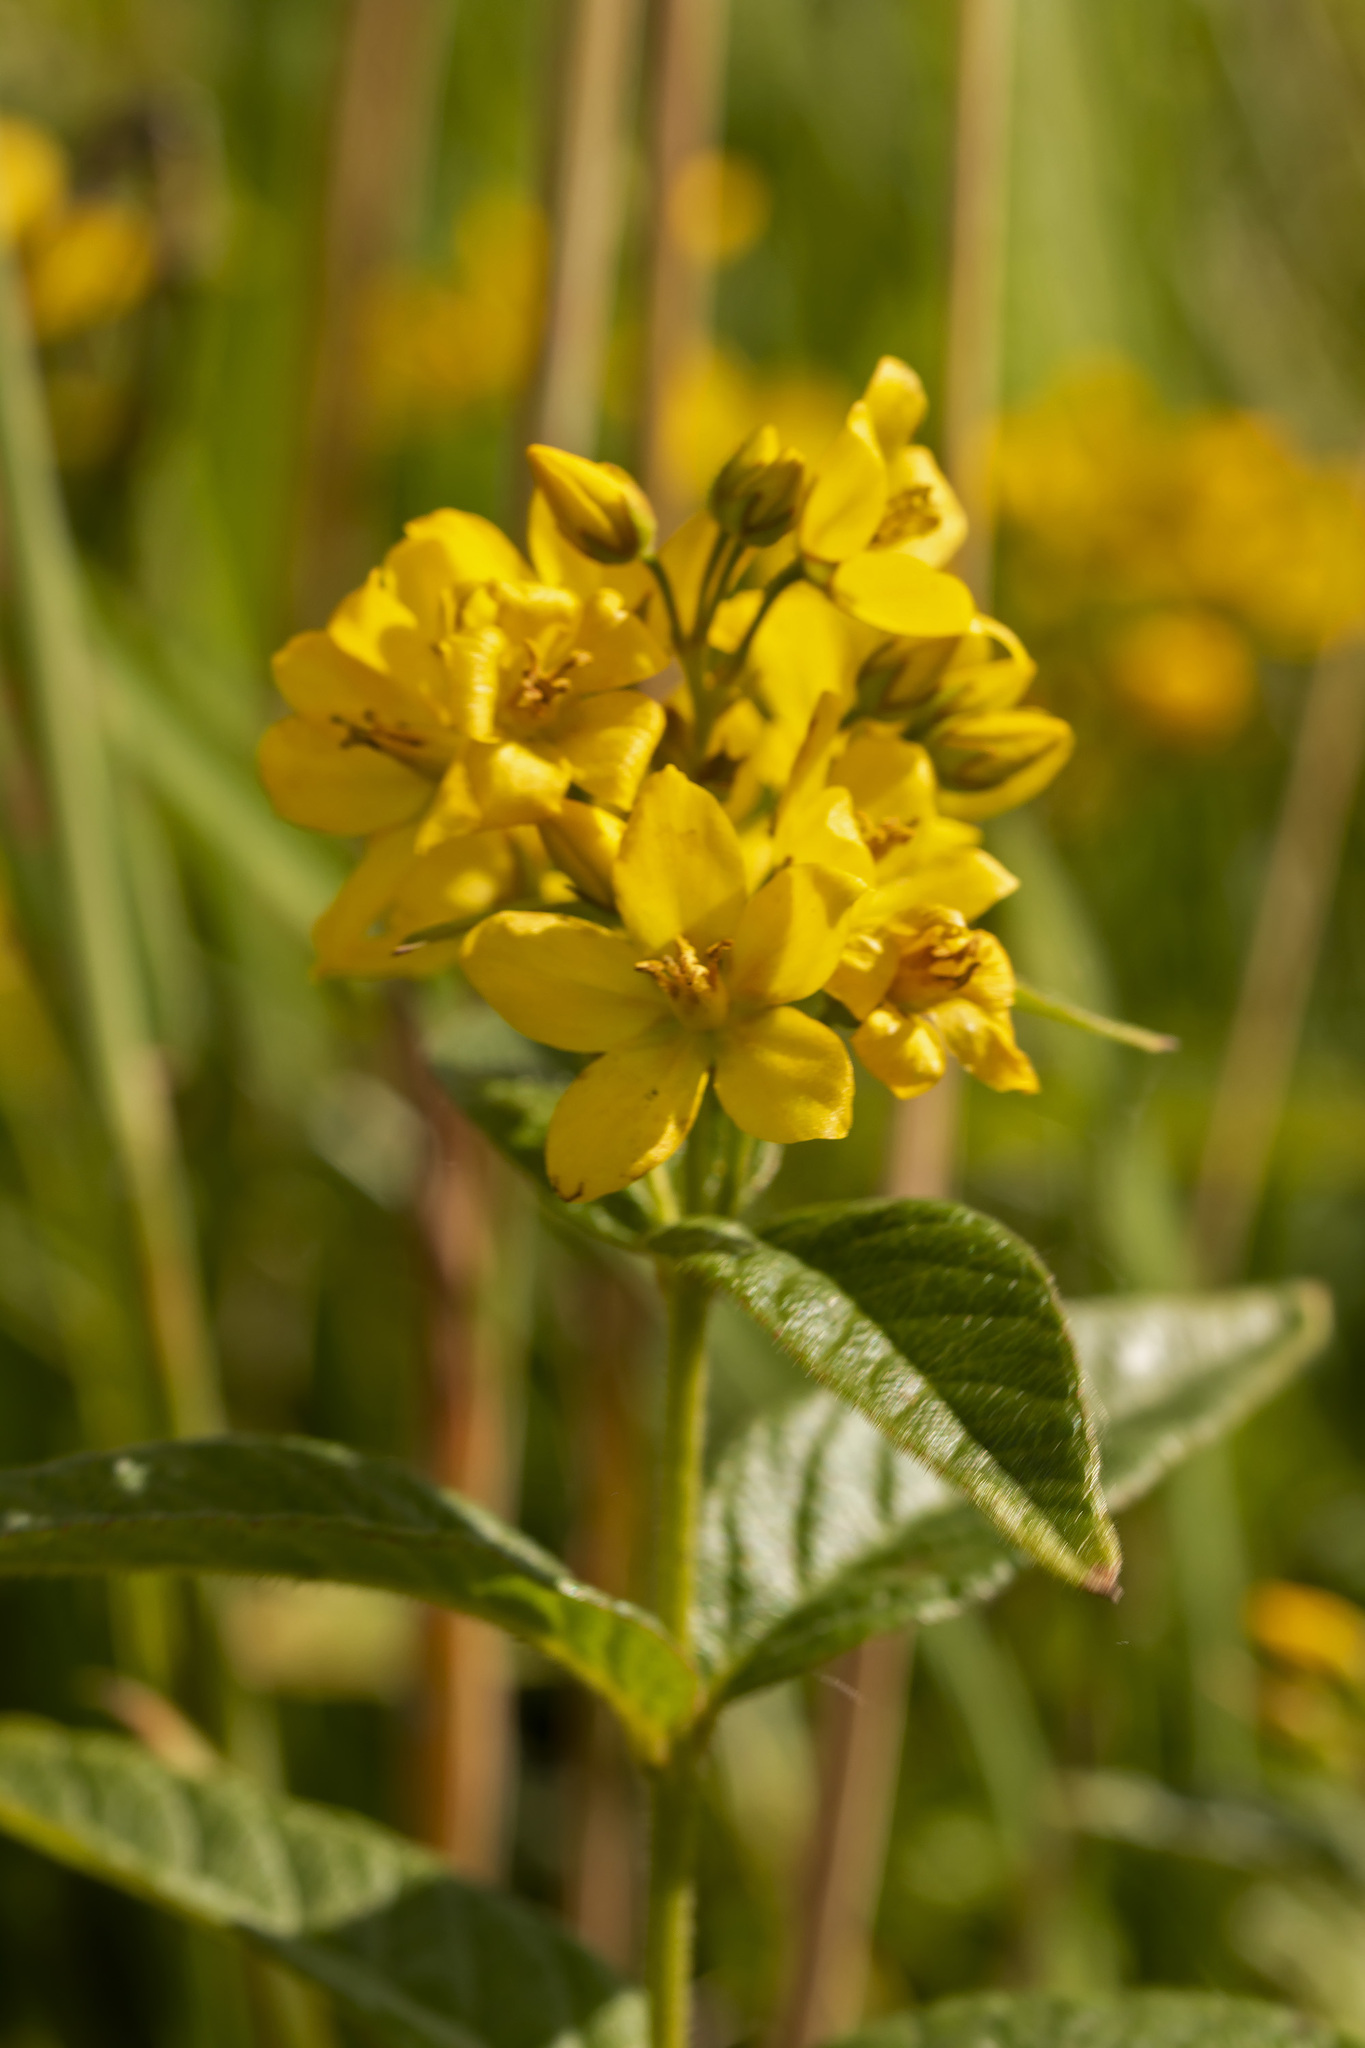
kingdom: Plantae
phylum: Tracheophyta
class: Magnoliopsida
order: Ericales
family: Primulaceae
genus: Lysimachia
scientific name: Lysimachia vulgaris
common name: Yellow loosestrife
